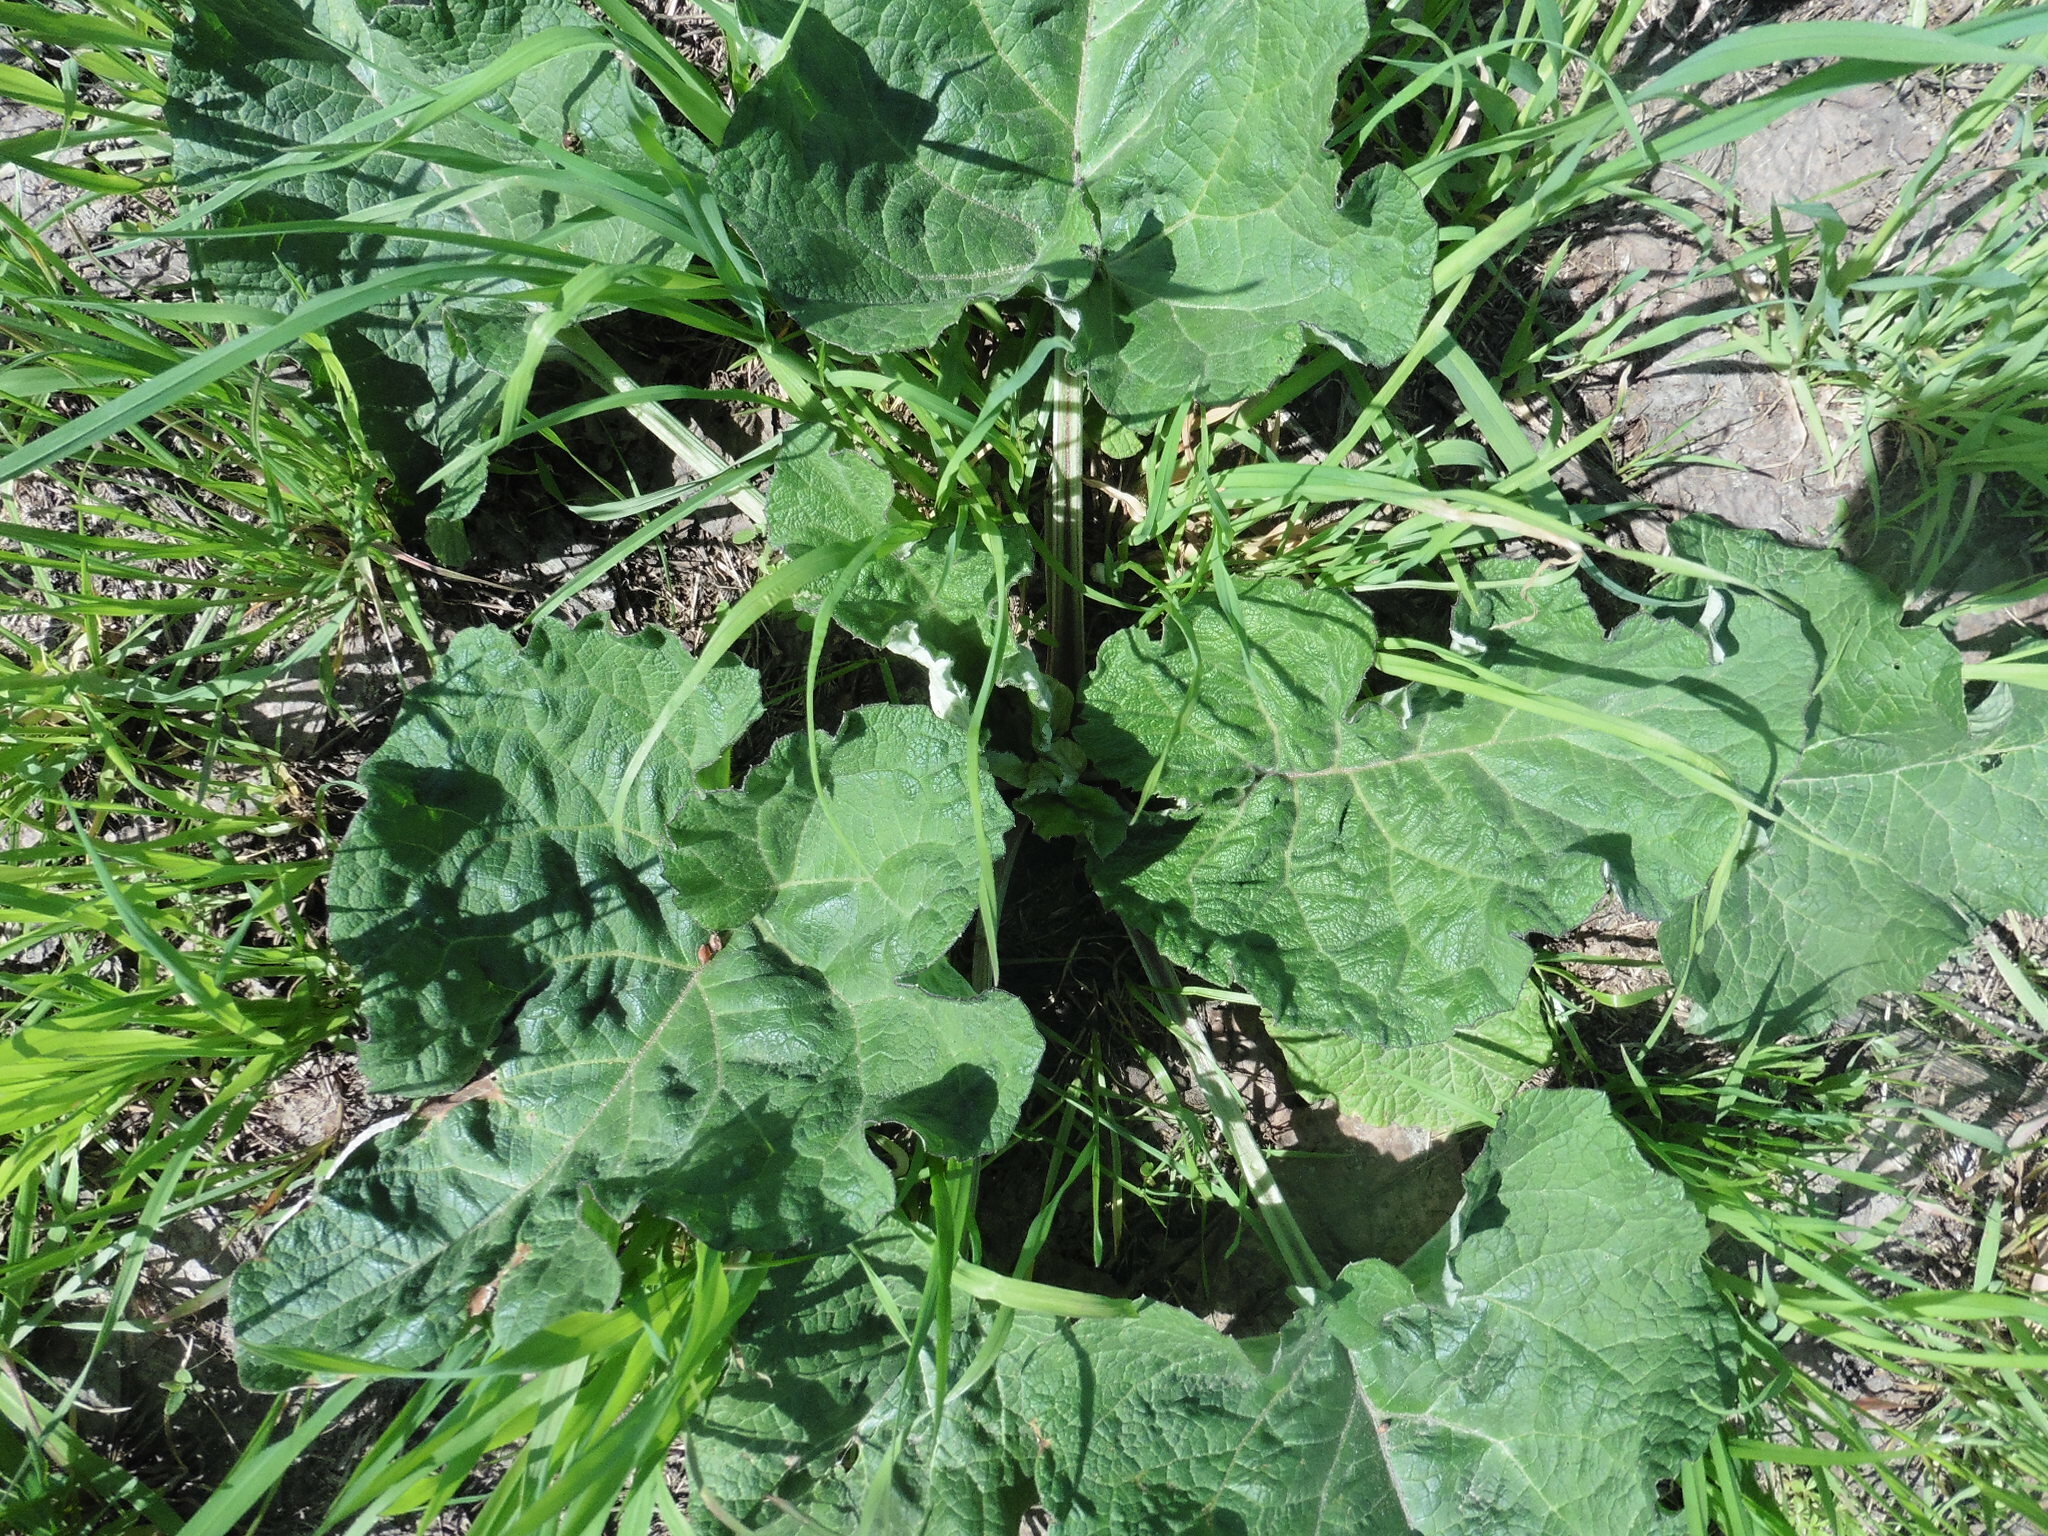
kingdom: Plantae
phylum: Tracheophyta
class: Magnoliopsida
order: Asterales
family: Asteraceae
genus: Arctium
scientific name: Arctium tomentosum
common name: Woolly burdock
